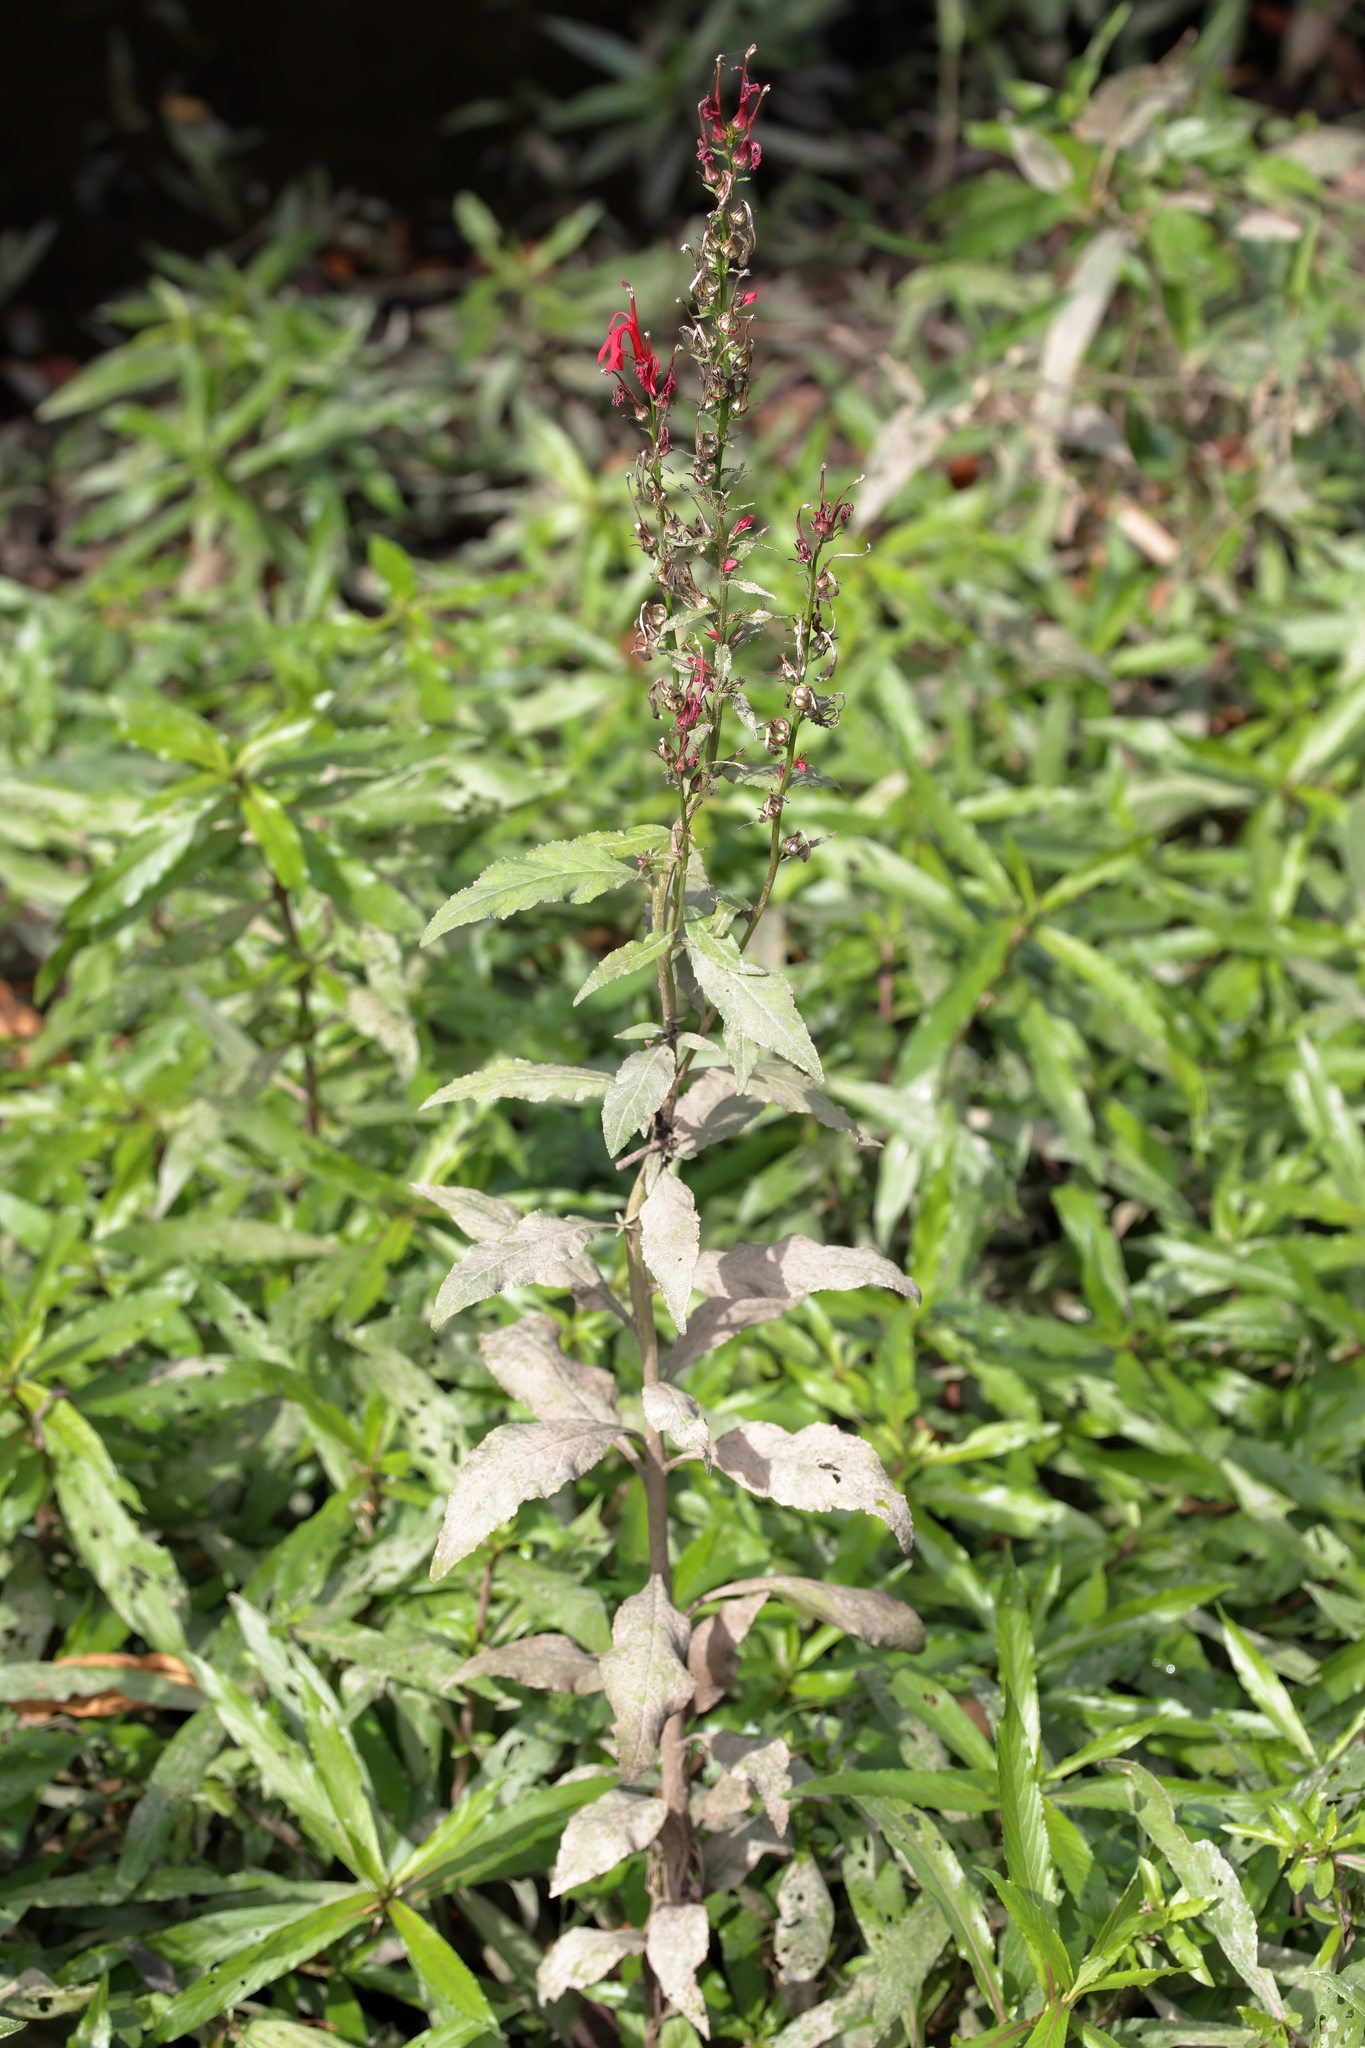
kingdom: Plantae
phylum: Tracheophyta
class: Magnoliopsida
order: Asterales
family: Campanulaceae
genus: Lobelia
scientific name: Lobelia cardinalis
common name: Cardinal flower
